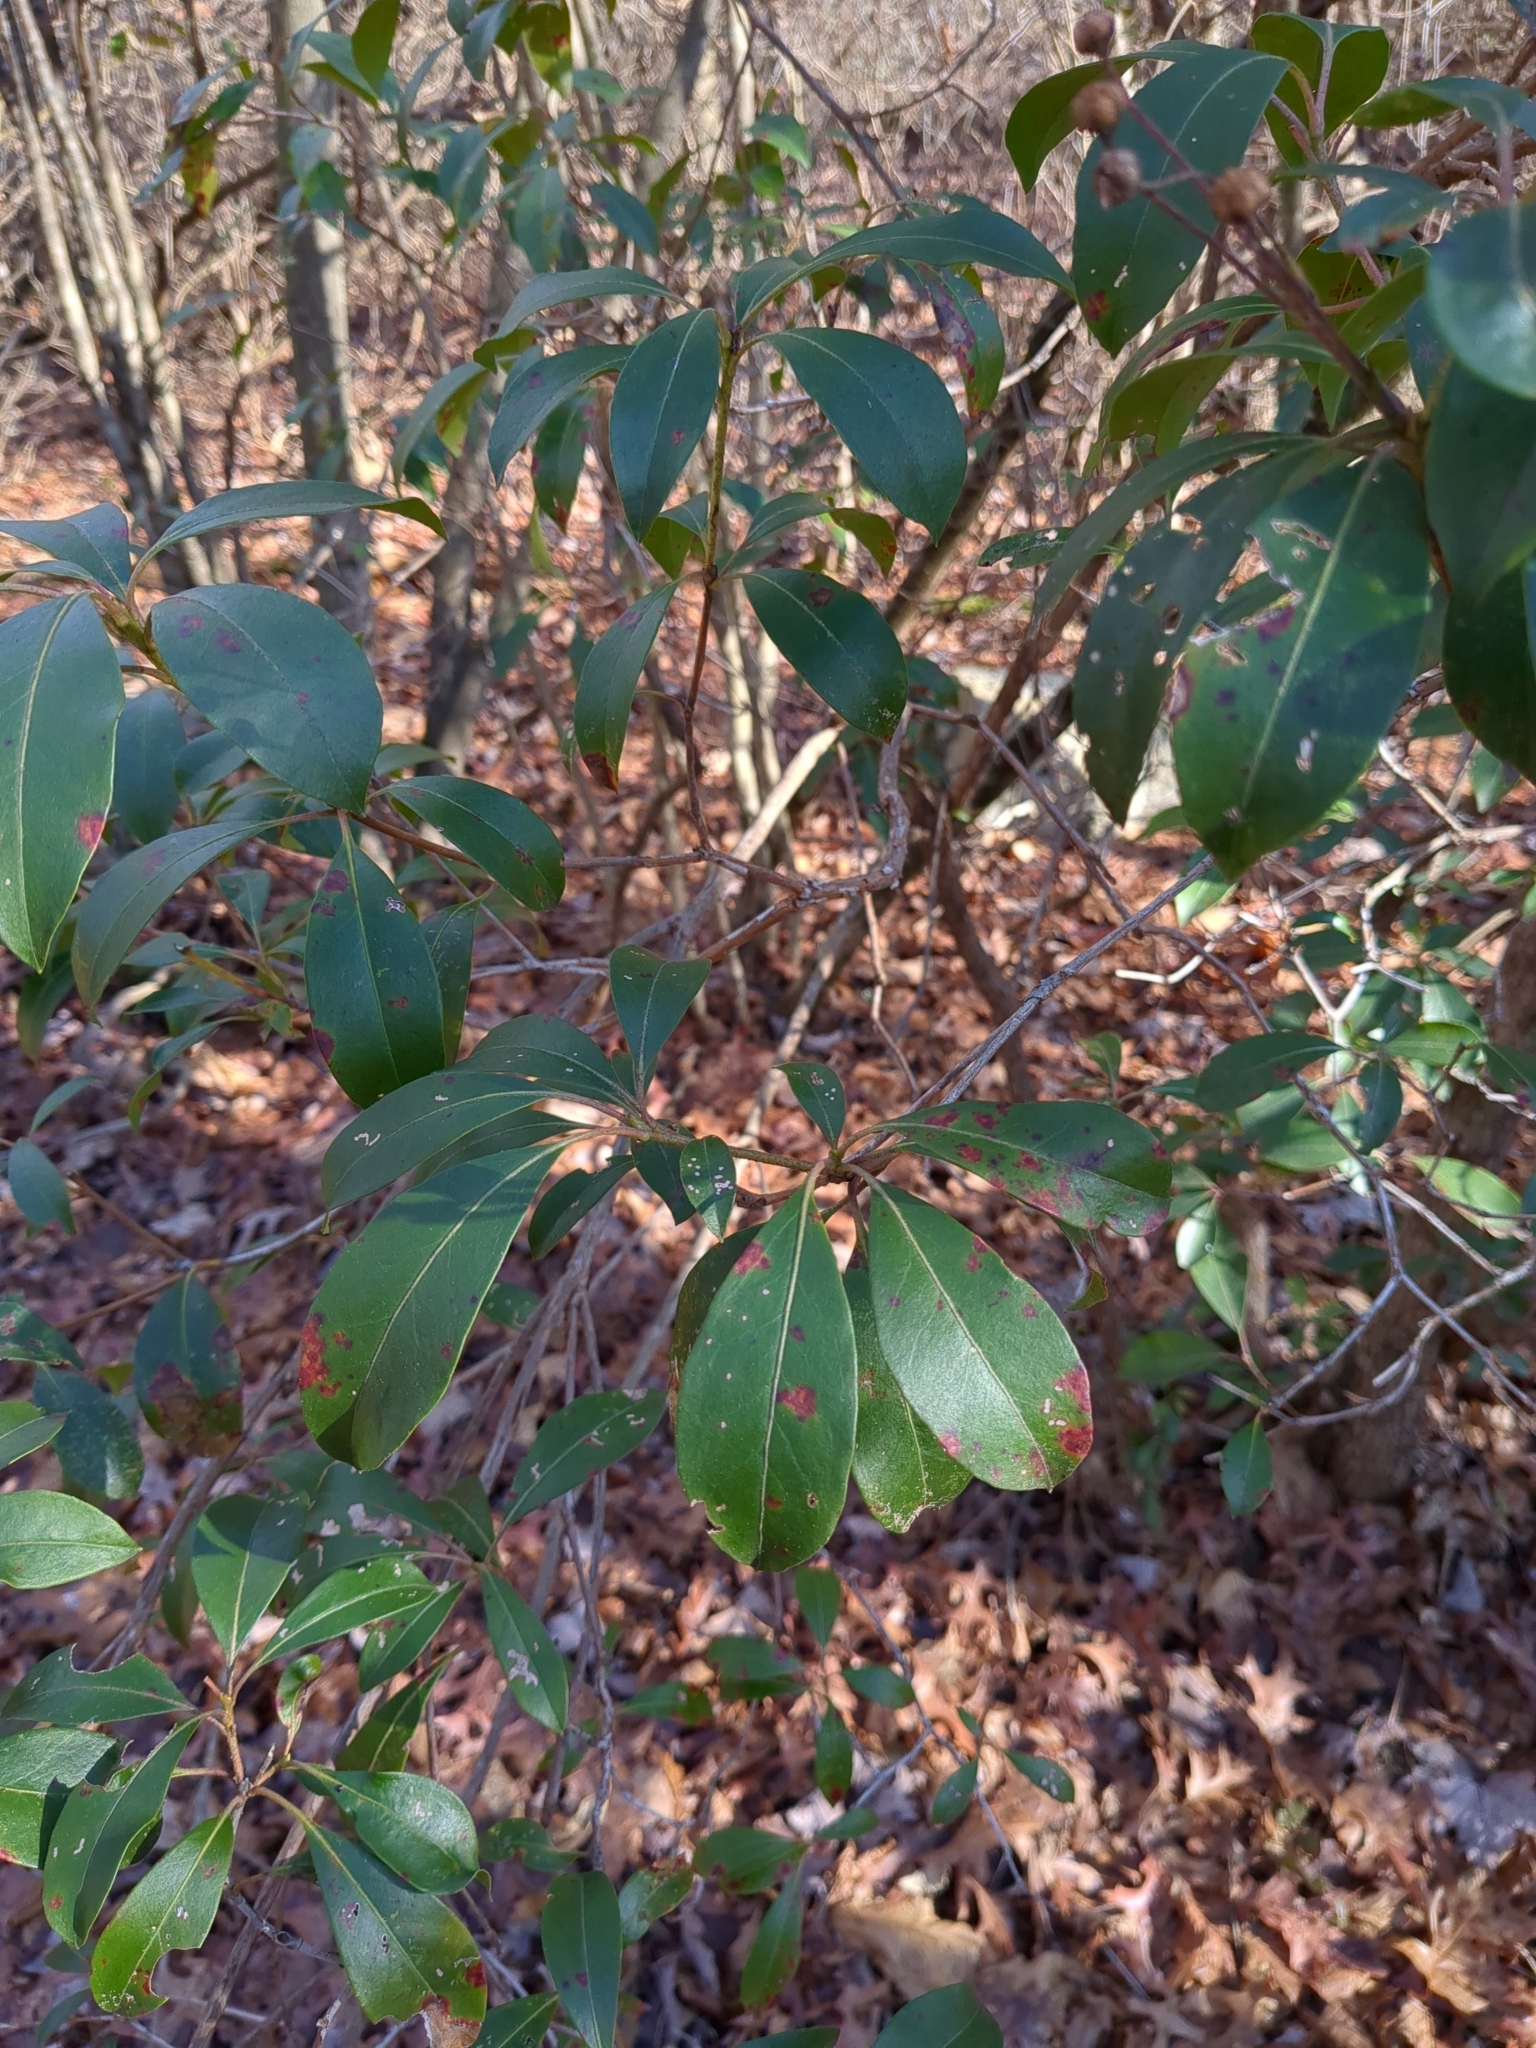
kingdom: Plantae
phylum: Tracheophyta
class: Magnoliopsida
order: Ericales
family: Ericaceae
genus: Kalmia
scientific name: Kalmia latifolia
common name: Mountain-laurel
